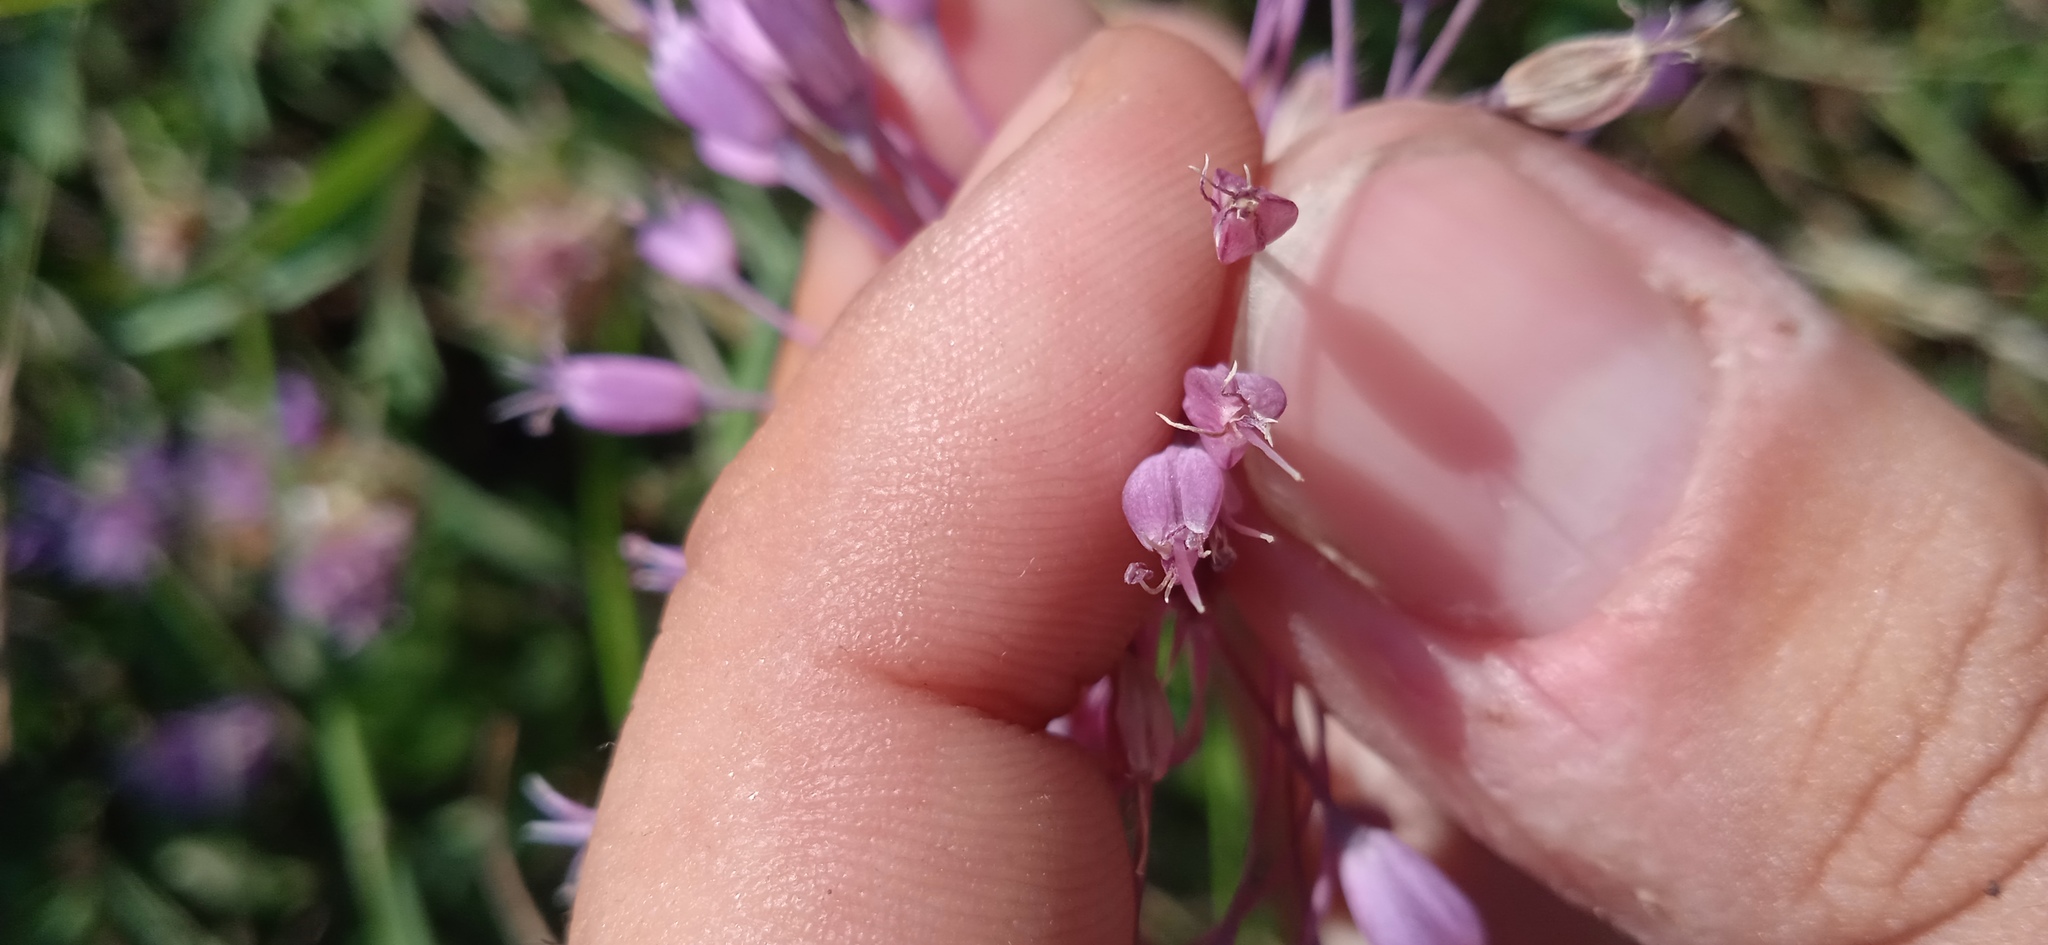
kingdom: Plantae
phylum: Tracheophyta
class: Liliopsida
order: Asparagales
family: Amaryllidaceae
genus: Allium
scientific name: Allium carinatum
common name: Keeled garlic
